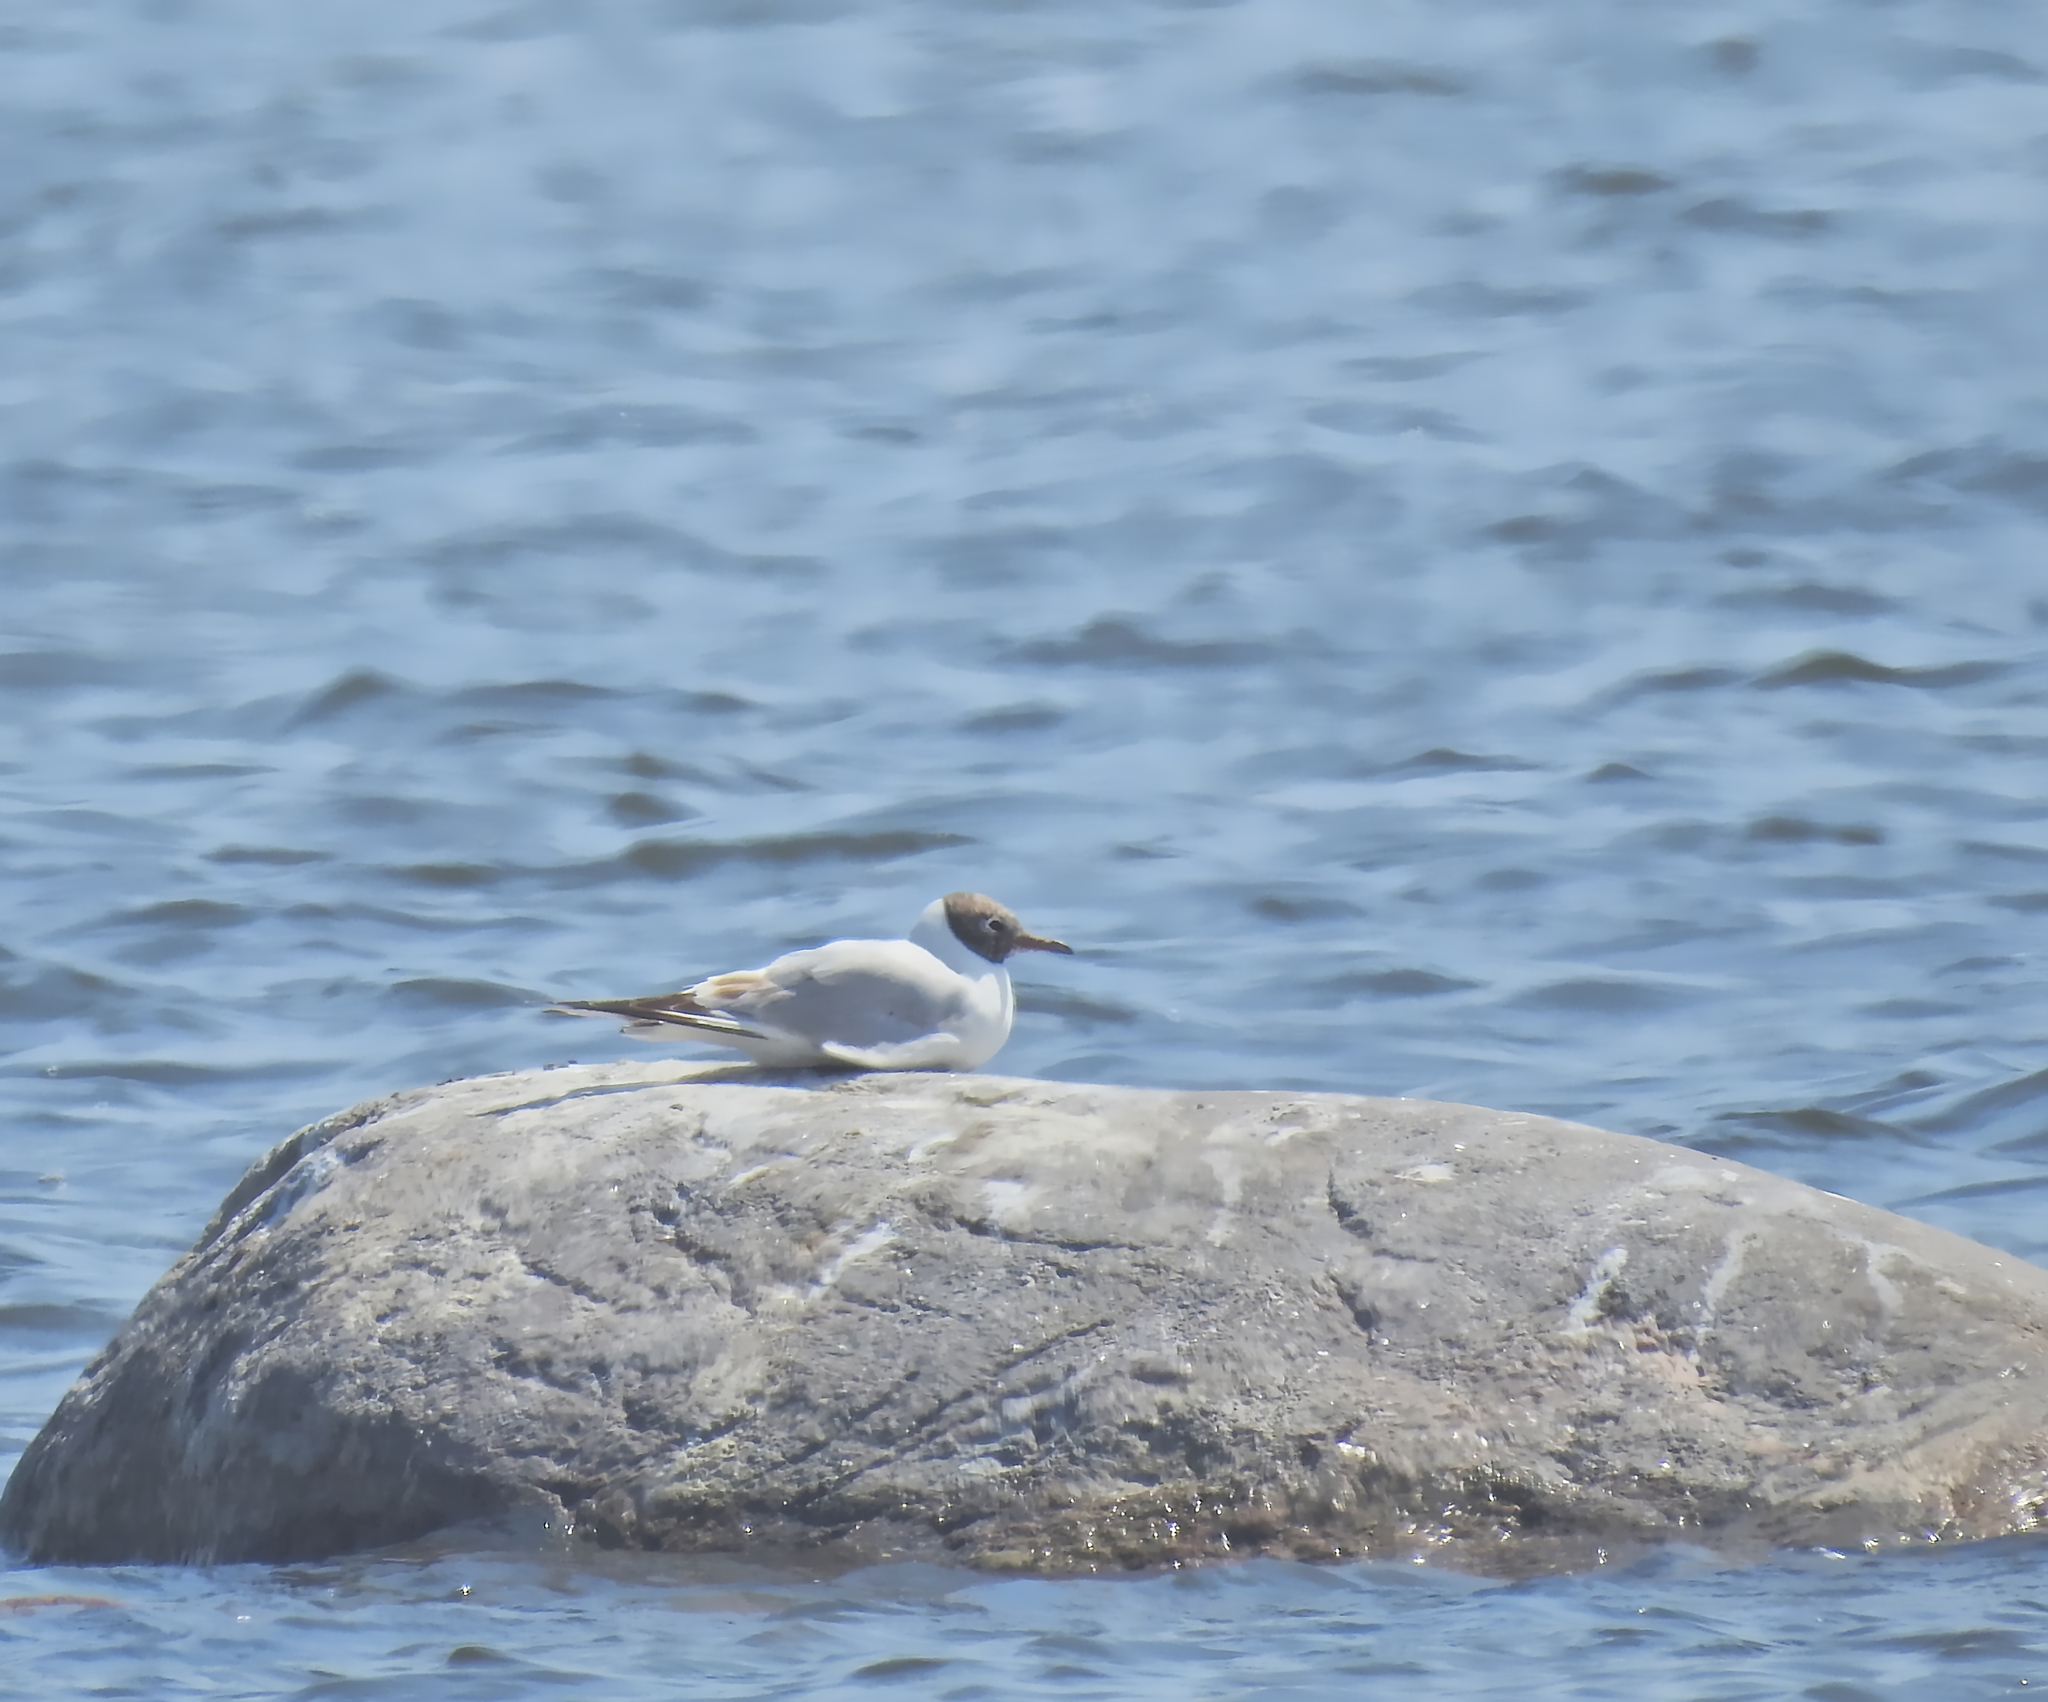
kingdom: Animalia
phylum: Chordata
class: Aves
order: Charadriiformes
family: Laridae
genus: Chroicocephalus
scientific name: Chroicocephalus ridibundus
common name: Black-headed gull
